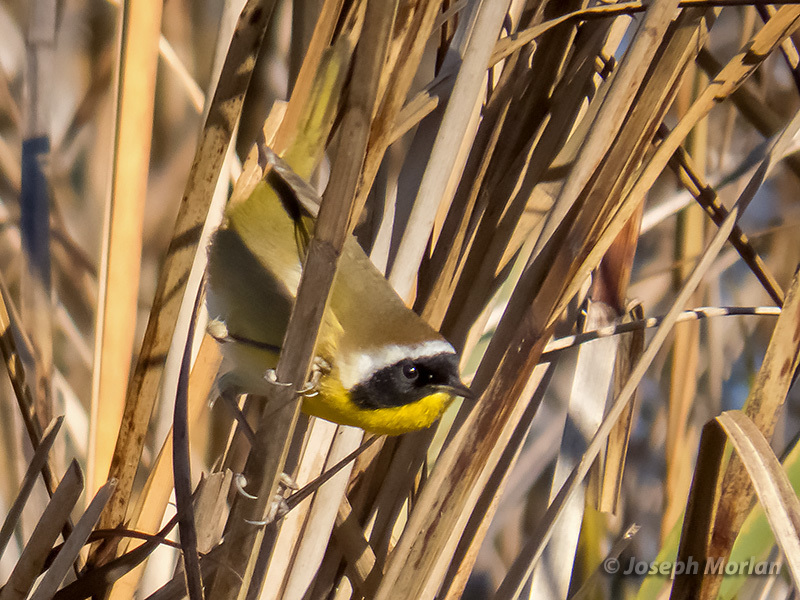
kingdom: Animalia
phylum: Chordata
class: Aves
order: Passeriformes
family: Parulidae
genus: Geothlypis
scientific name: Geothlypis trichas
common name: Common yellowthroat
